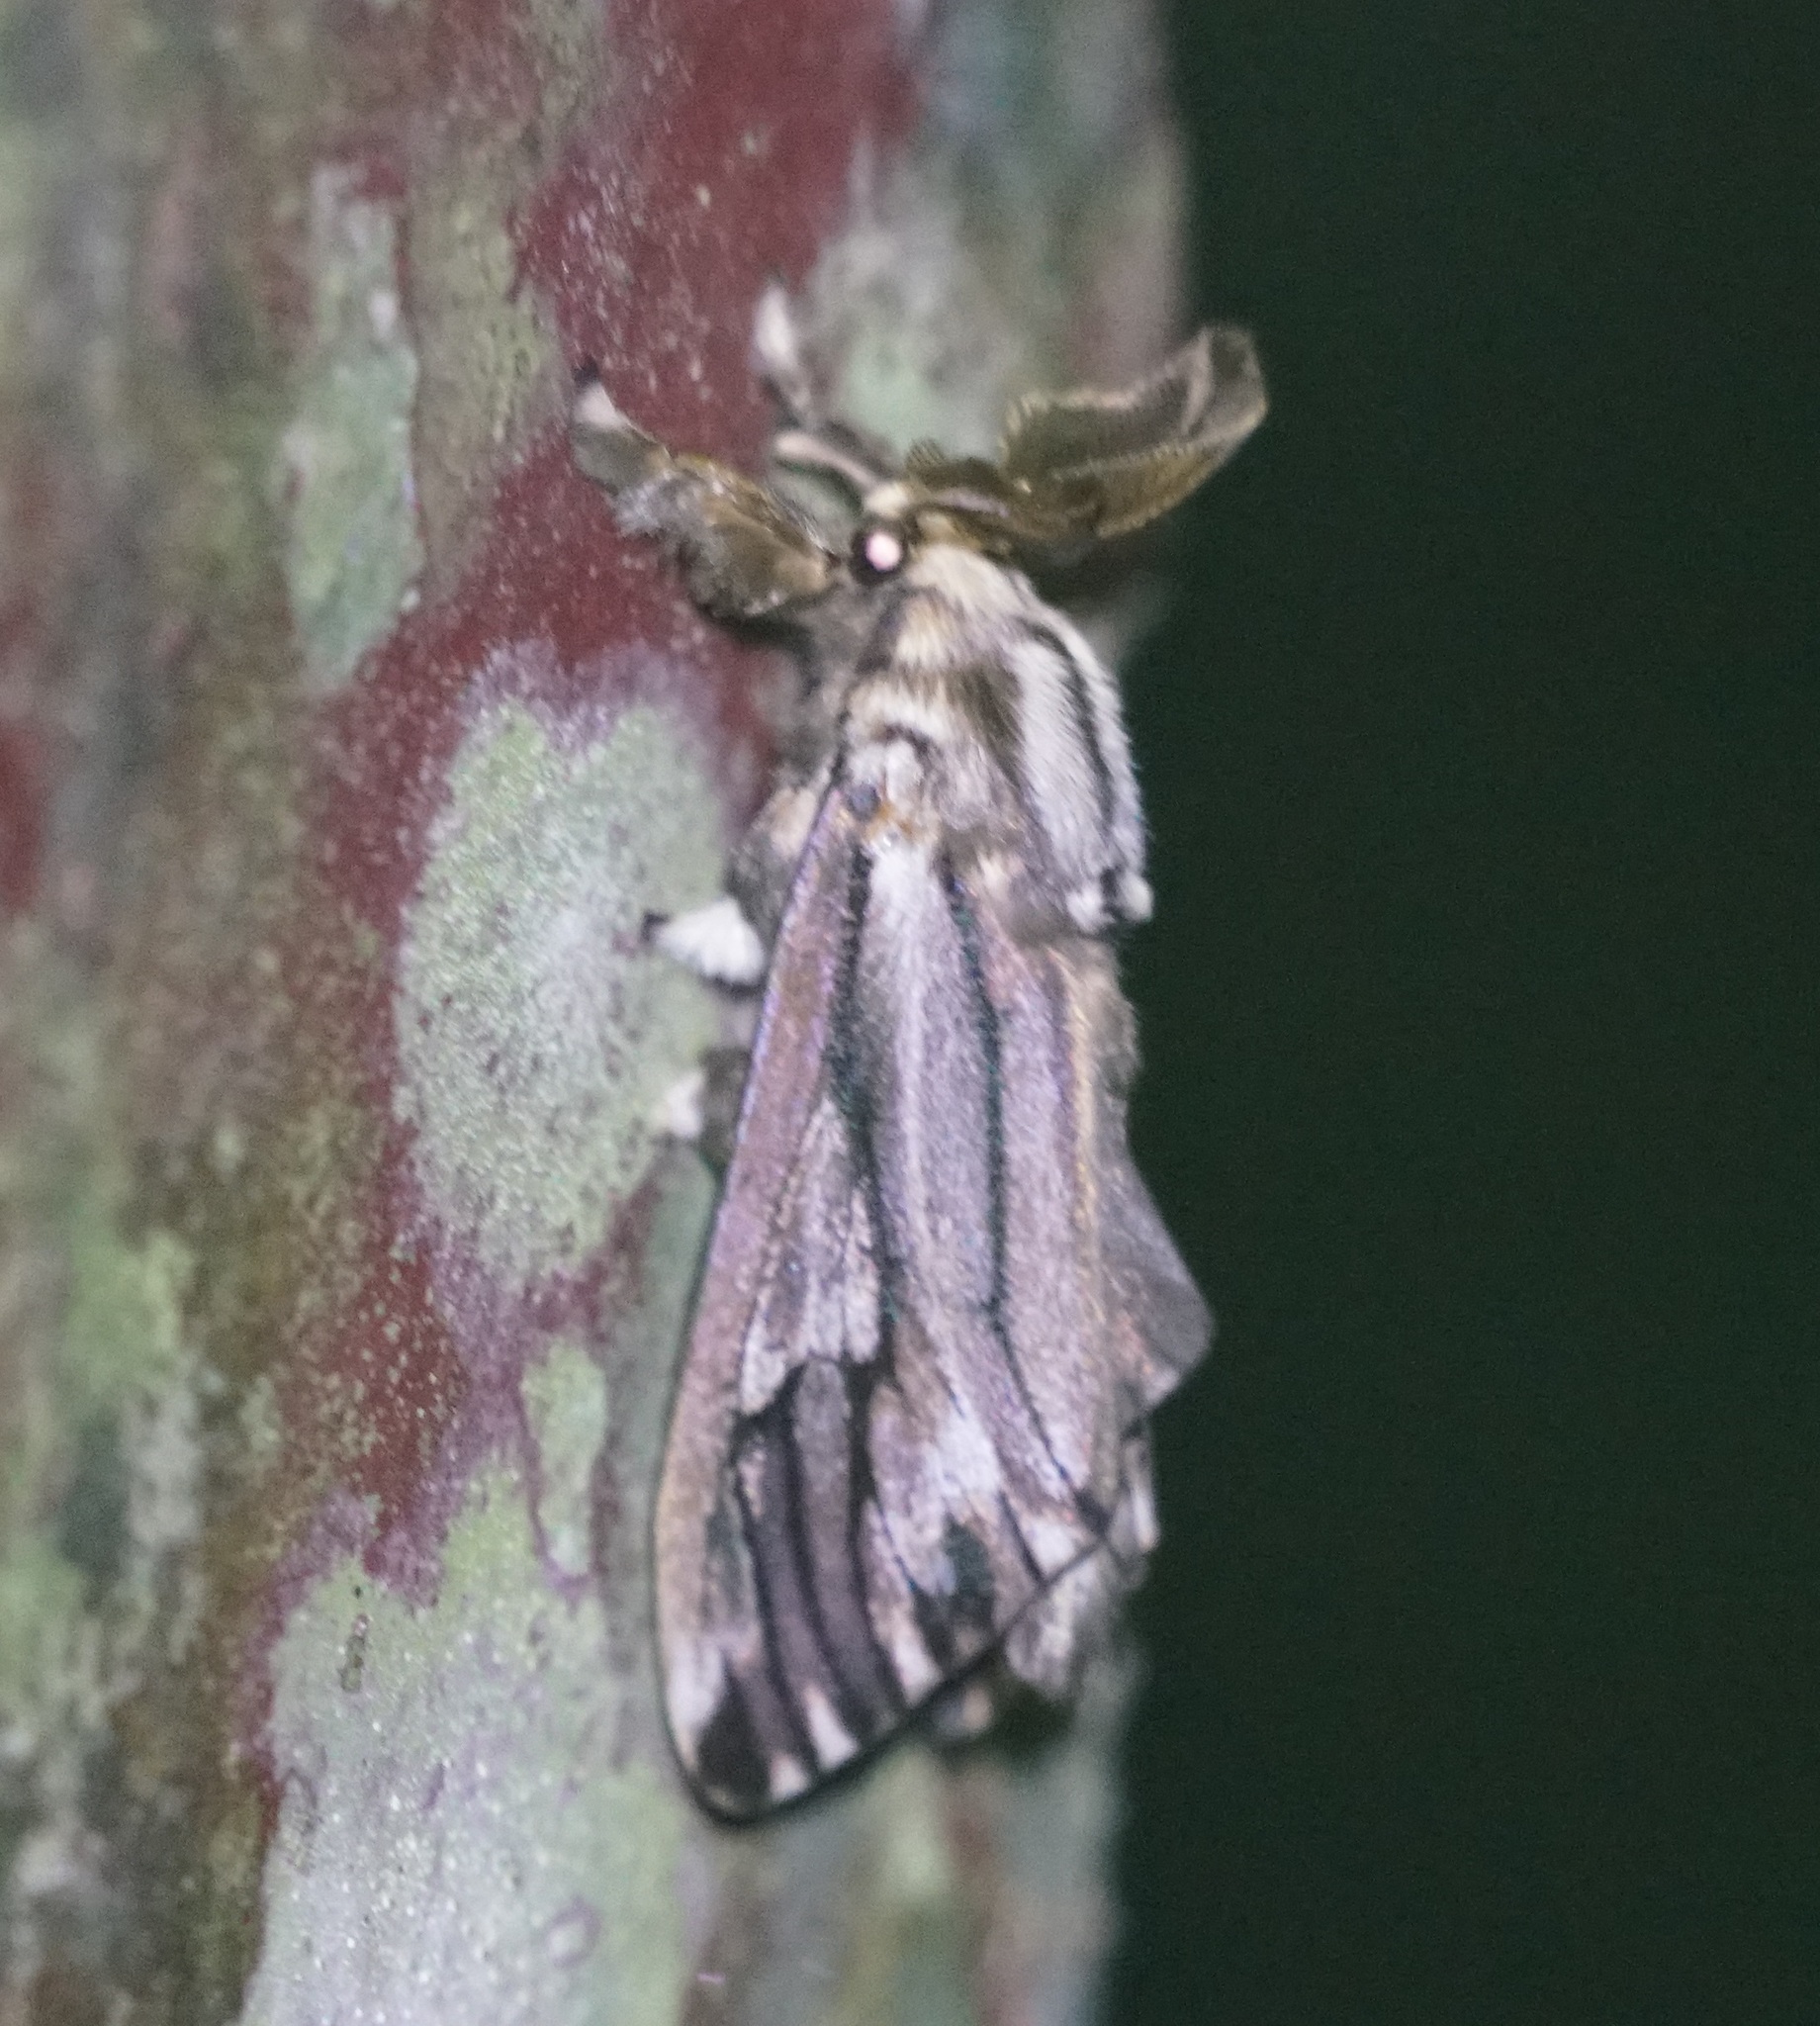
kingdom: Animalia
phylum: Arthropoda
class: Insecta
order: Lepidoptera
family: Psychidae
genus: Eumeta
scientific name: Eumeta variegatus
